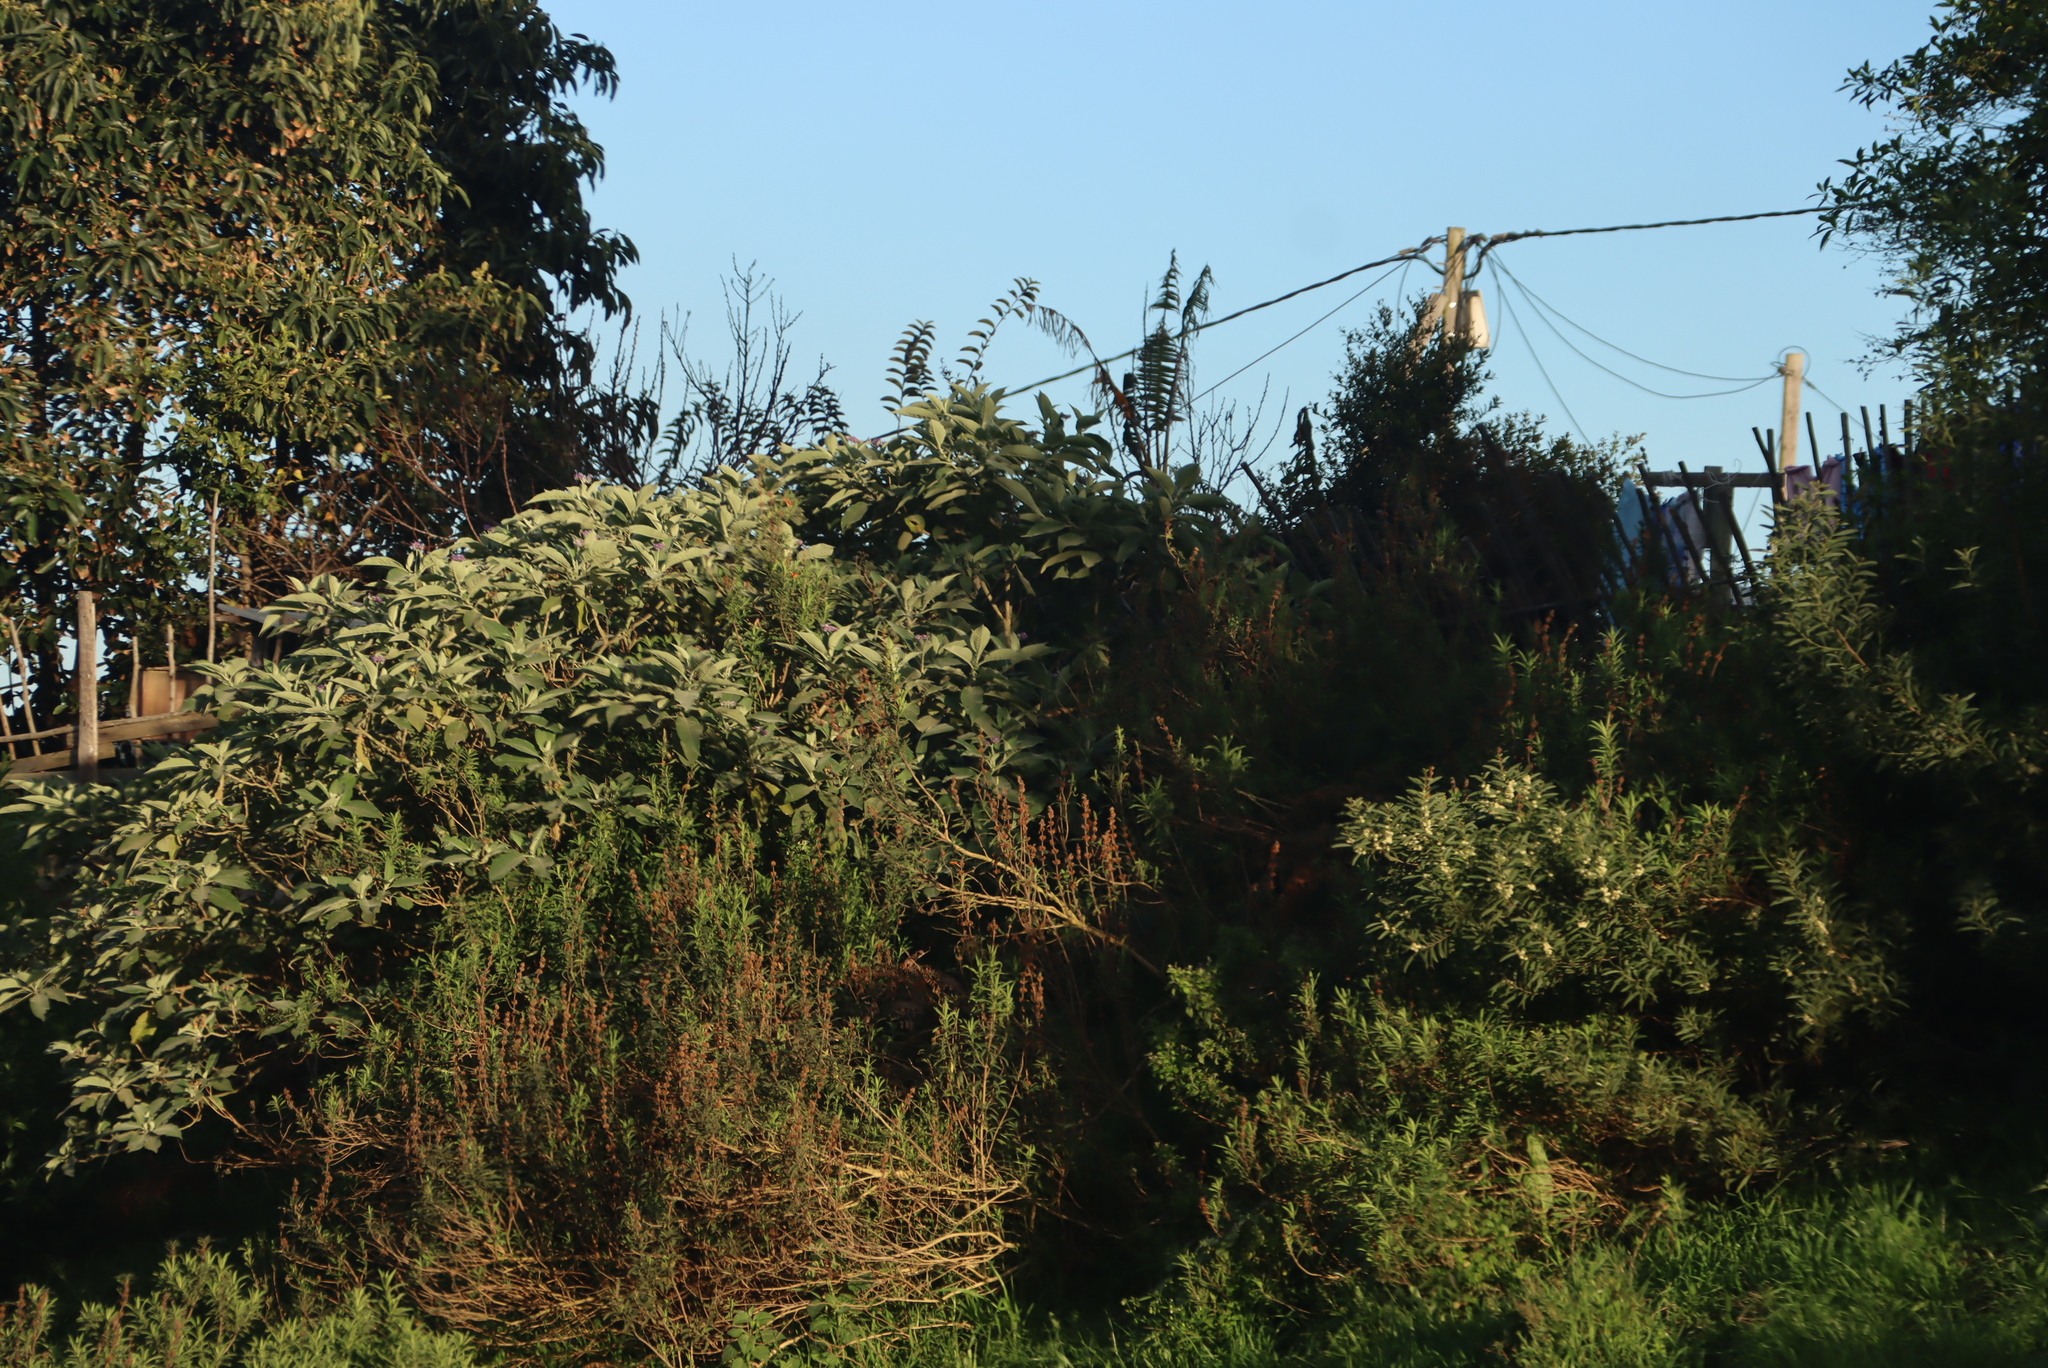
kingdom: Plantae
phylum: Tracheophyta
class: Magnoliopsida
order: Solanales
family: Solanaceae
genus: Solanum
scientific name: Solanum mauritianum
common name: Earleaf nightshade
